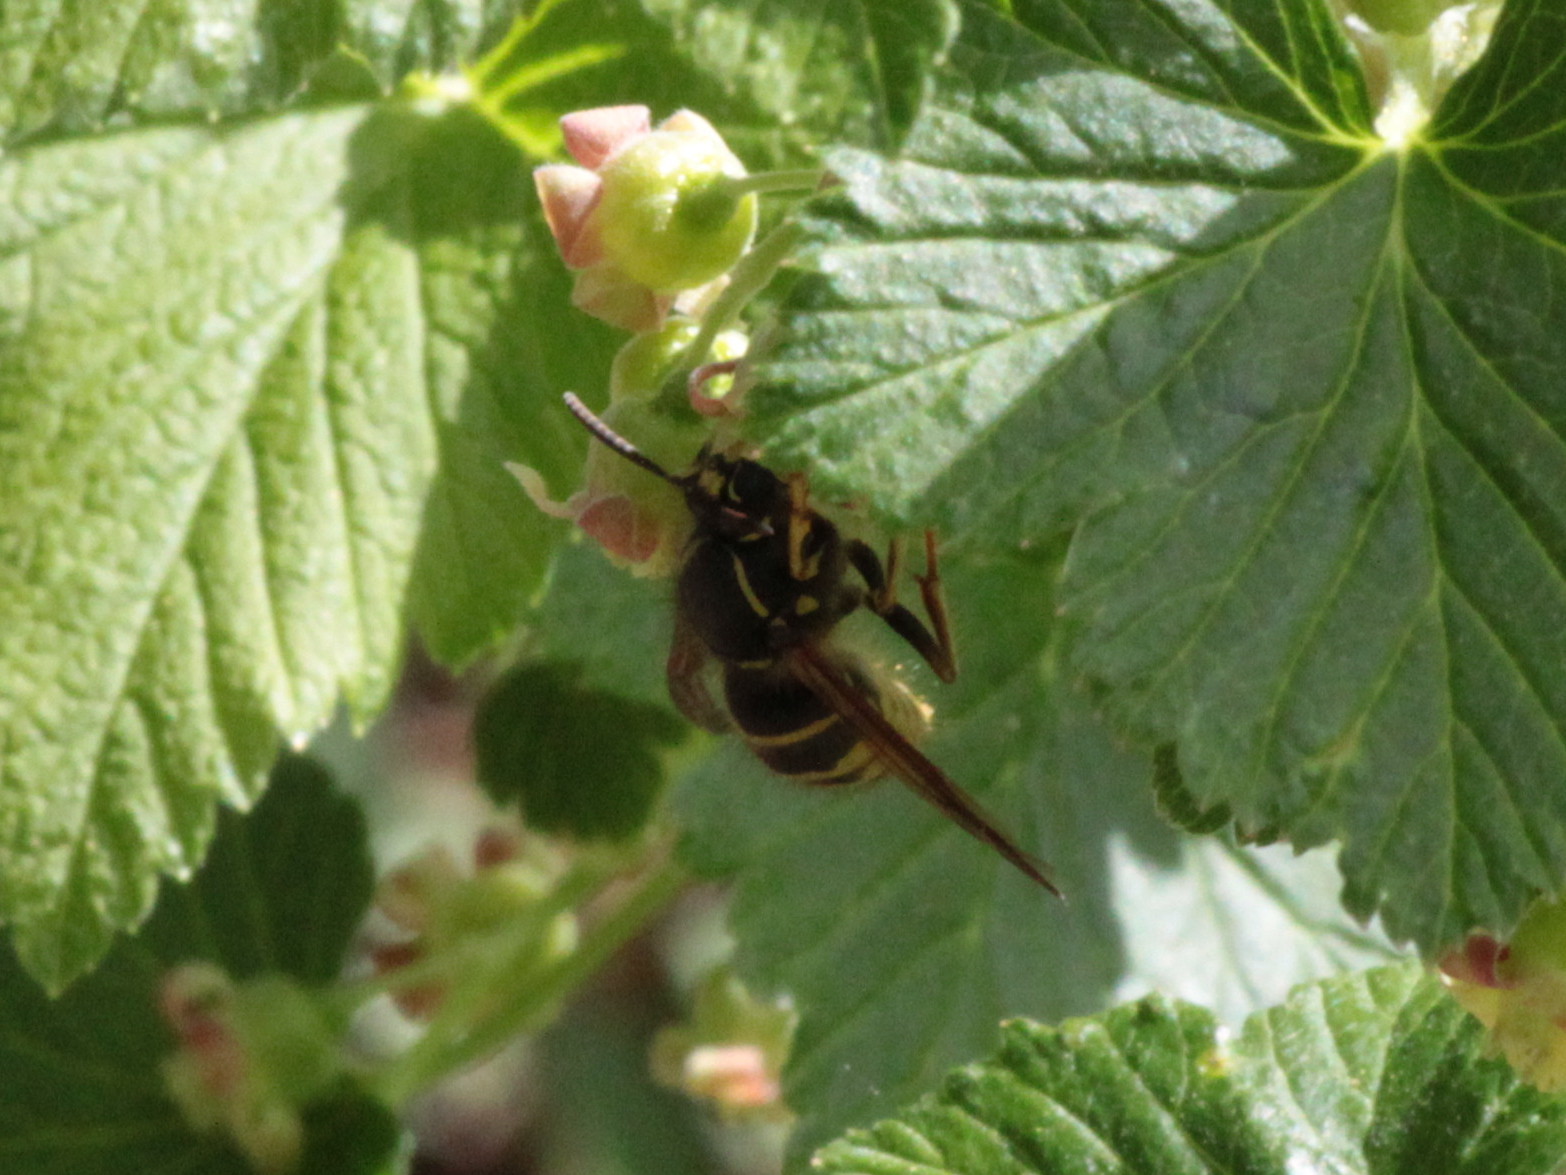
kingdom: Animalia
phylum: Arthropoda
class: Insecta
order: Hymenoptera
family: Vespidae
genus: Dolichovespula
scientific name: Dolichovespula norvegicoides
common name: Northern aerial yellowjacket
